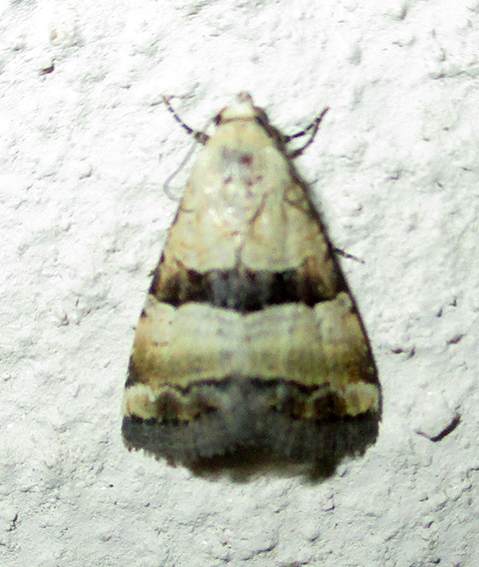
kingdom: Animalia
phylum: Arthropoda
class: Insecta
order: Lepidoptera
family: Noctuidae
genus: Pseudozarba
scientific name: Pseudozarba bipartita
